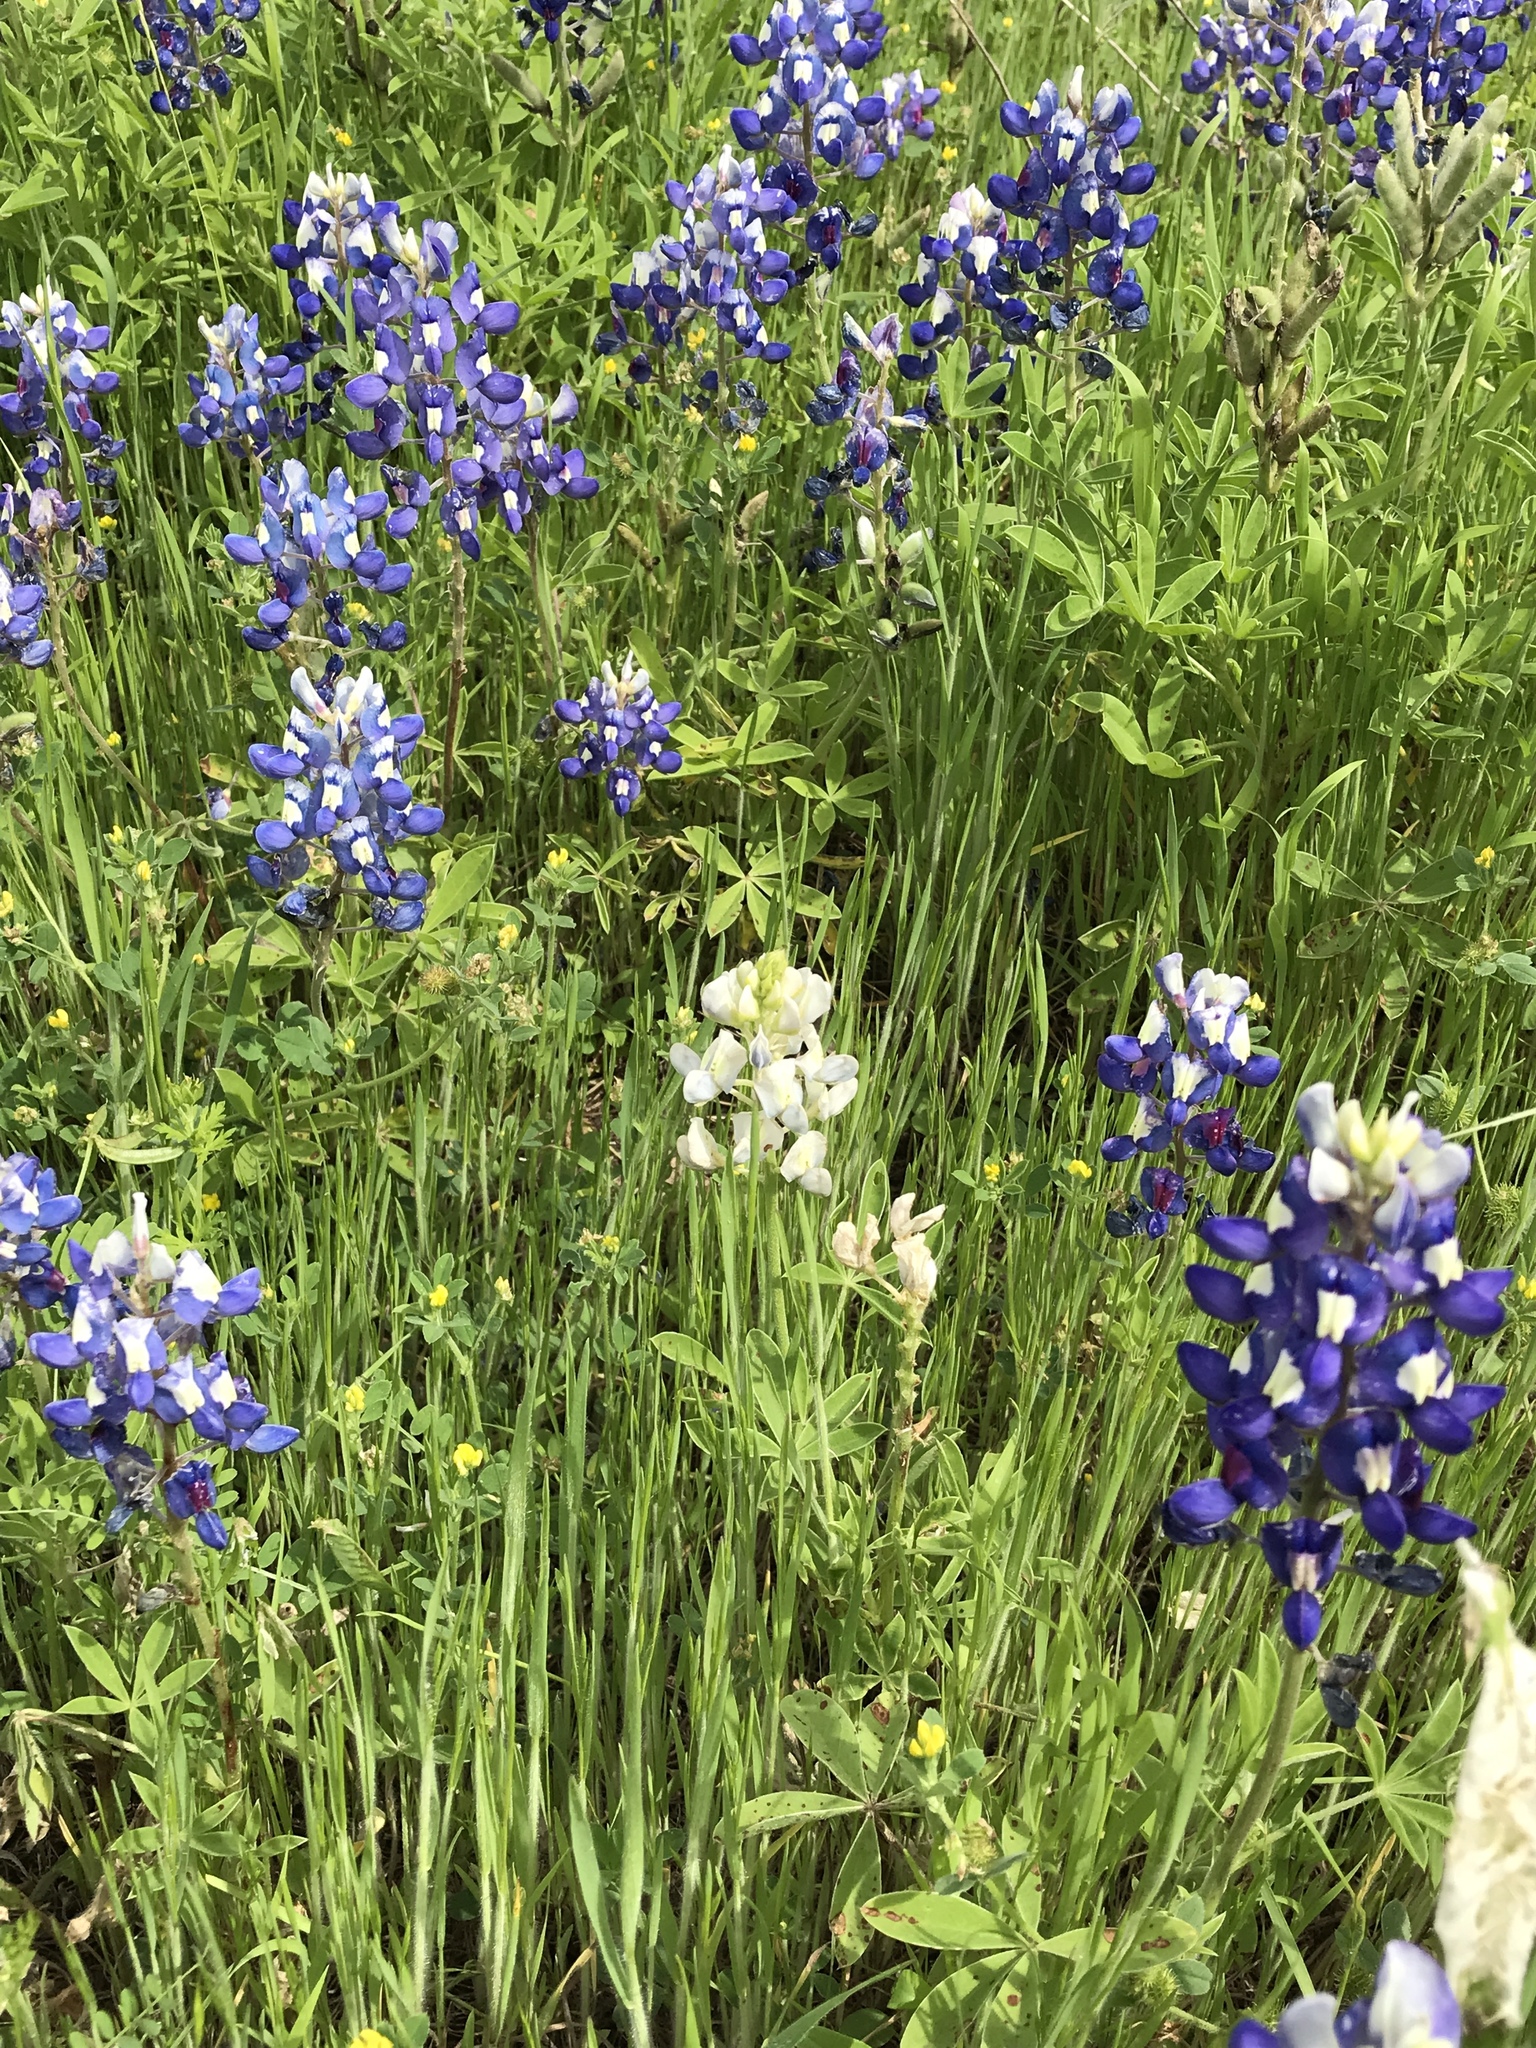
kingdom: Plantae
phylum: Tracheophyta
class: Magnoliopsida
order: Fabales
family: Fabaceae
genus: Lupinus
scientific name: Lupinus texensis
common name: Texas bluebonnet
